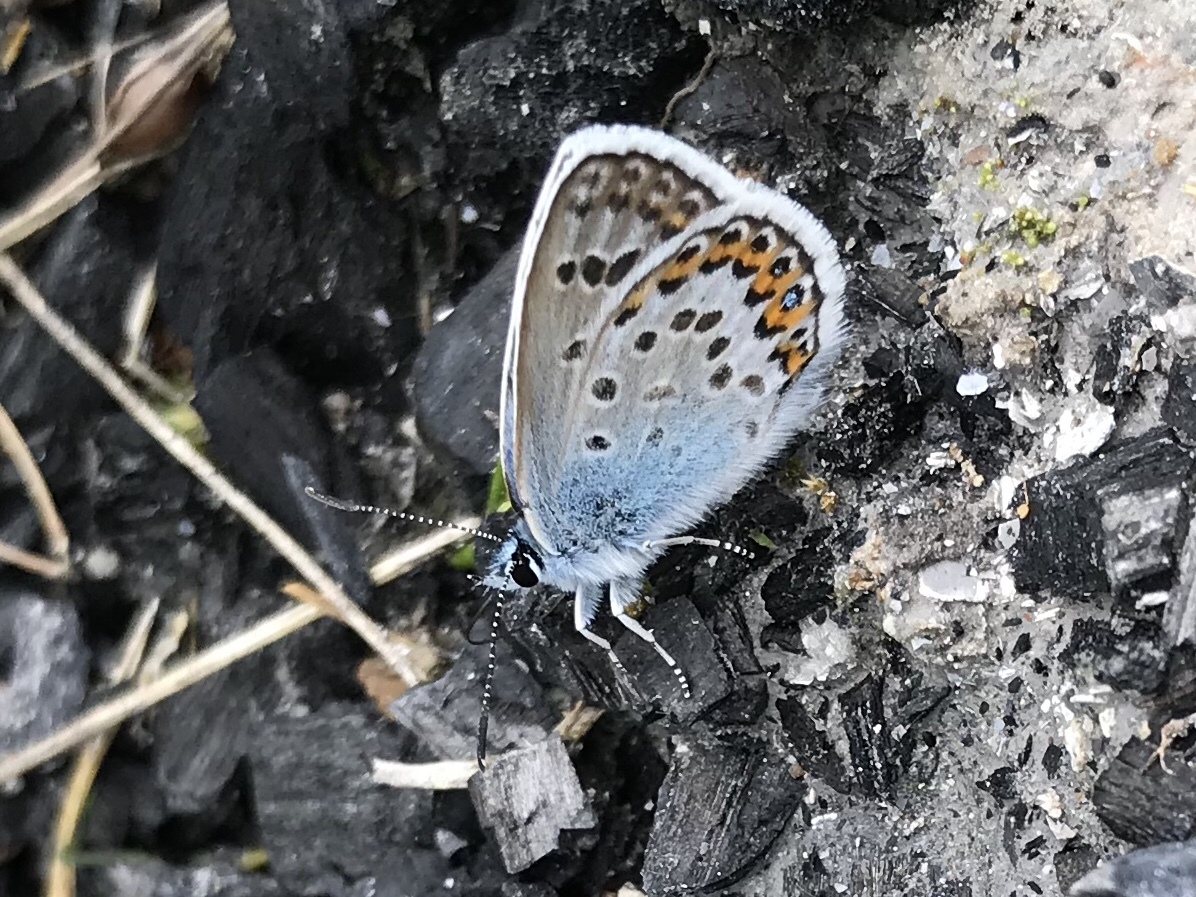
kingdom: Animalia
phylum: Arthropoda
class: Insecta
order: Lepidoptera
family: Lycaenidae
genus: Plebejus
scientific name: Plebejus argus
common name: Silver-studded blue
